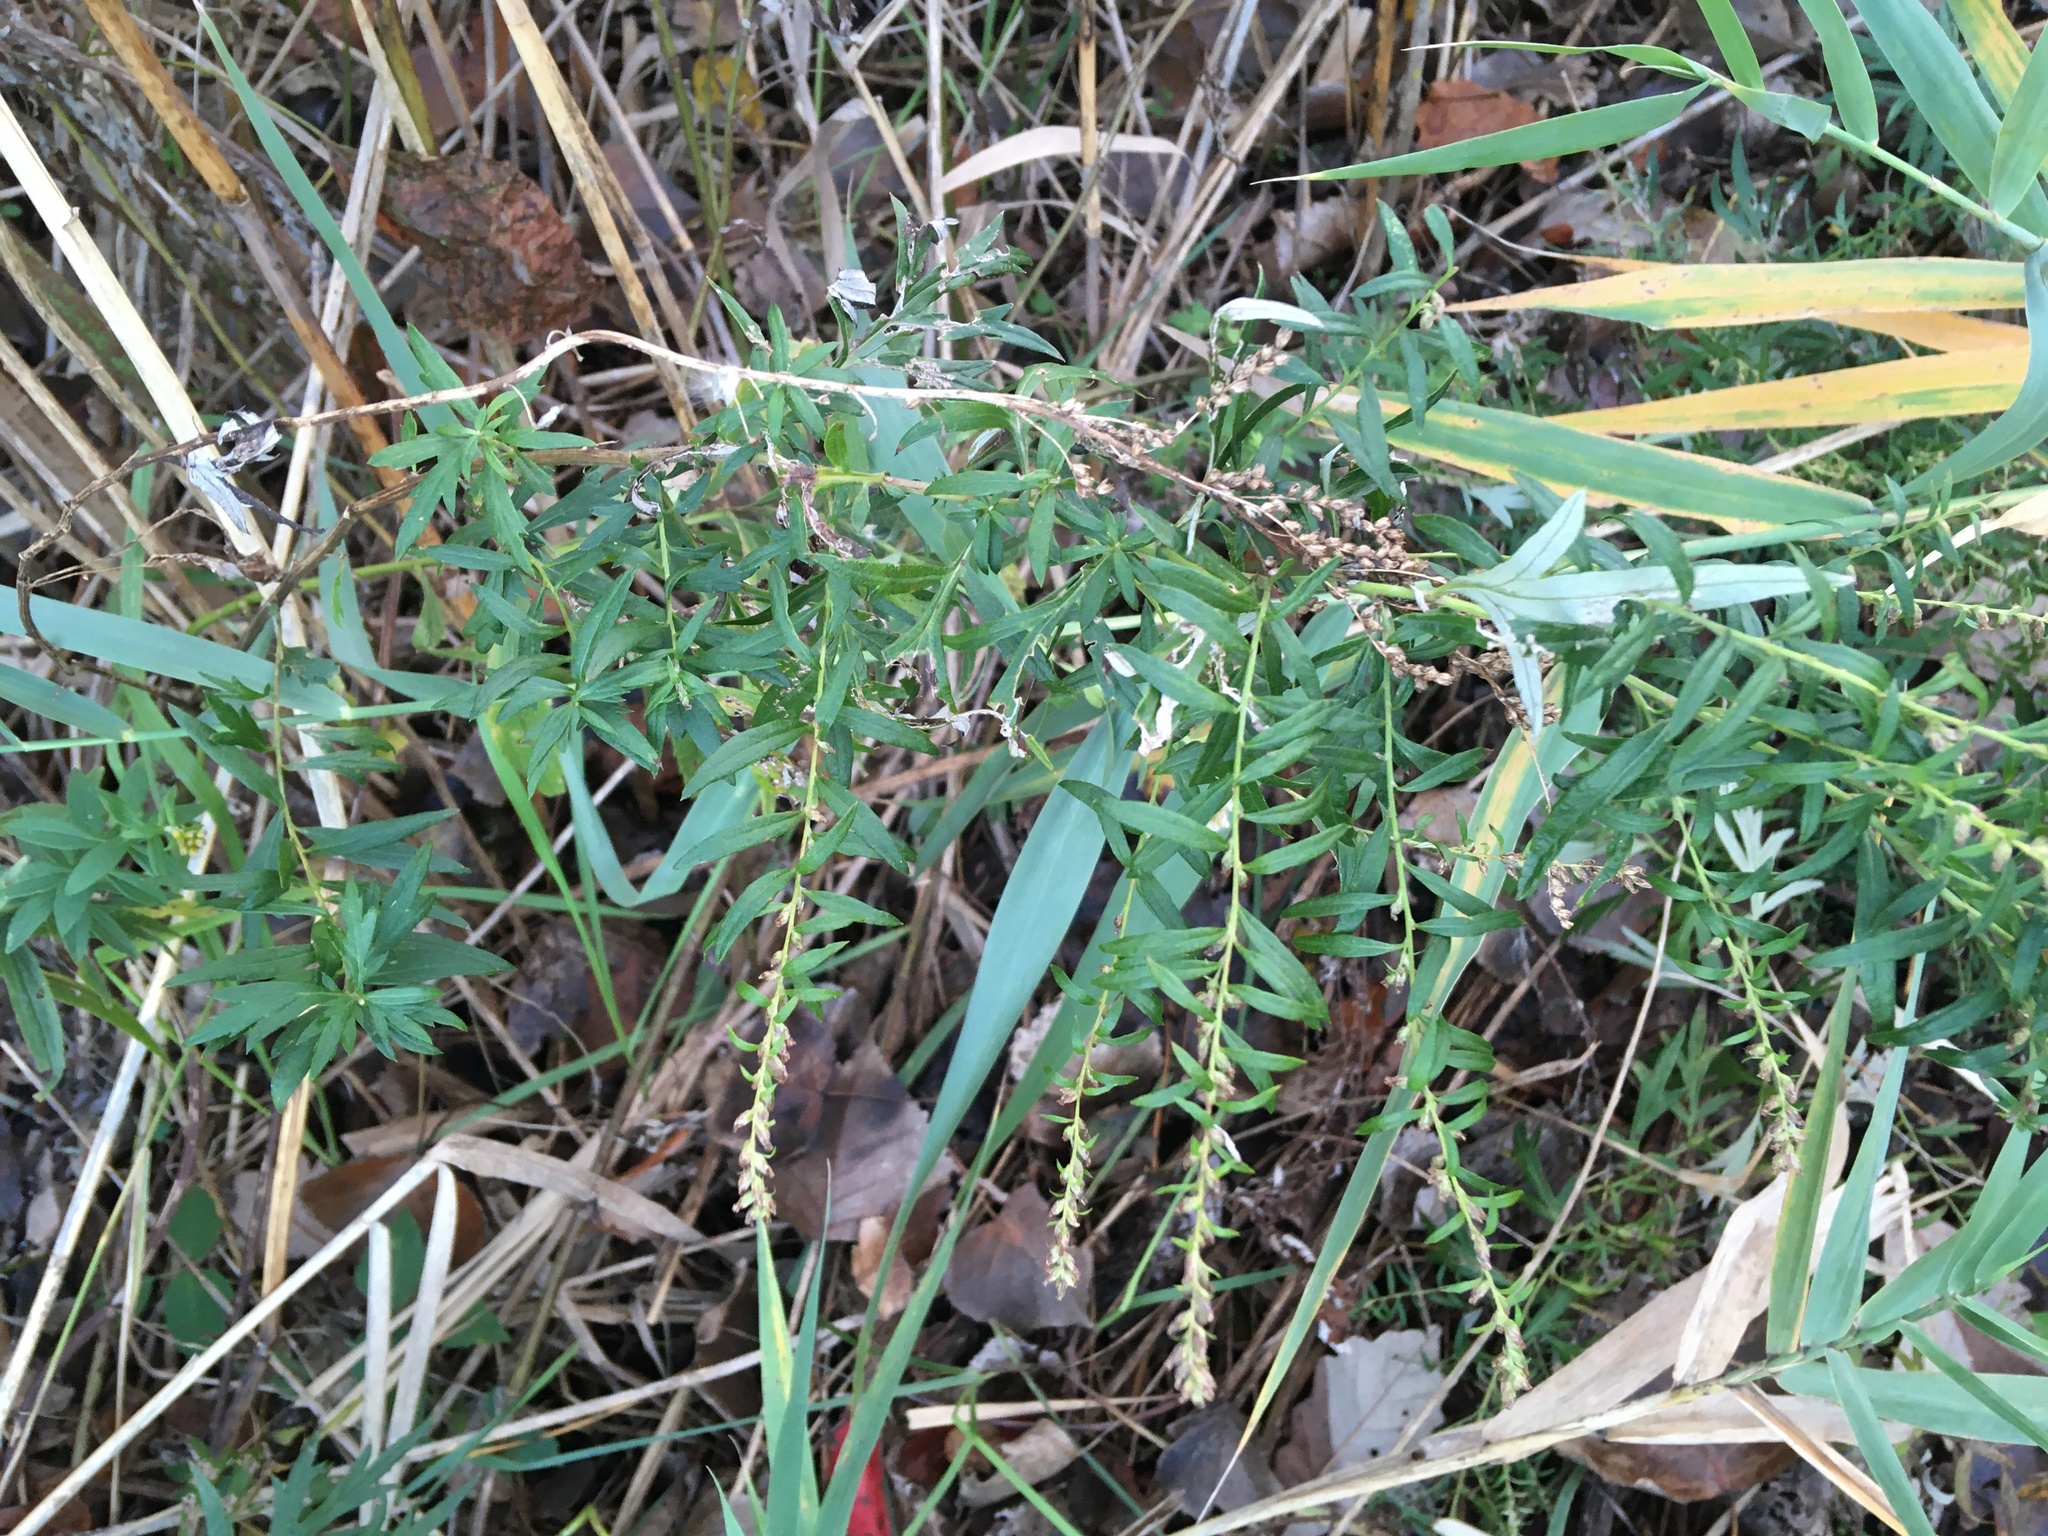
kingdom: Plantae
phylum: Tracheophyta
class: Magnoliopsida
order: Asterales
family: Asteraceae
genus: Artemisia
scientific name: Artemisia vulgaris
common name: Mugwort
